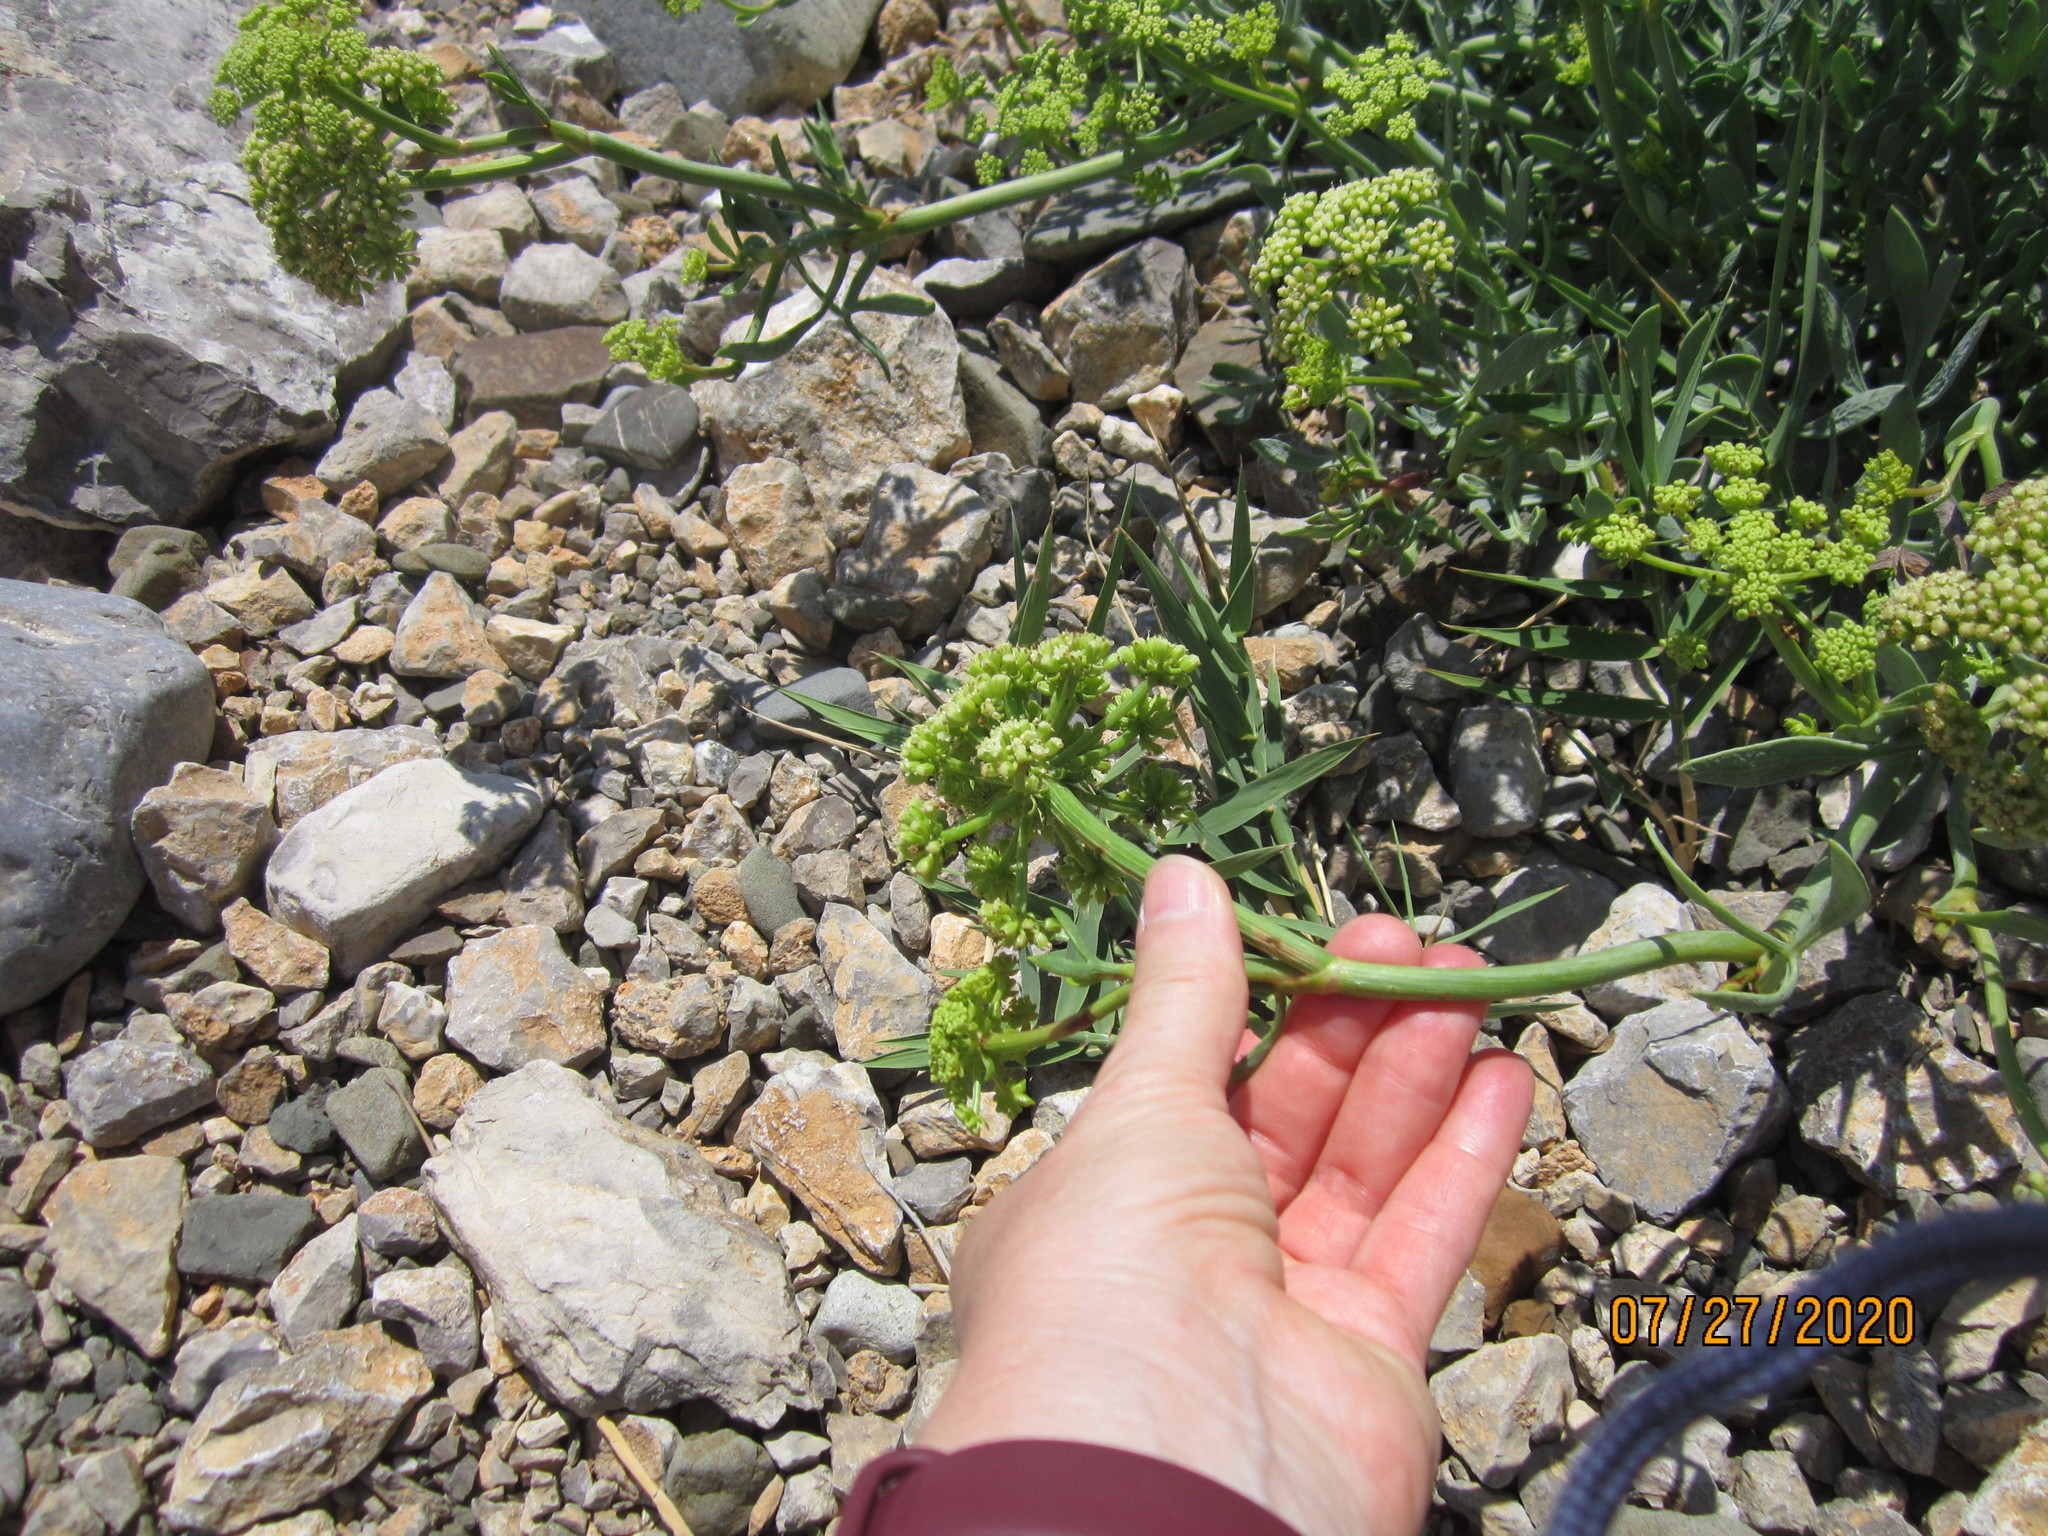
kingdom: Plantae
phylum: Tracheophyta
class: Magnoliopsida
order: Apiales
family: Apiaceae
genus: Crithmum
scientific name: Crithmum maritimum
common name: Rock samphire
